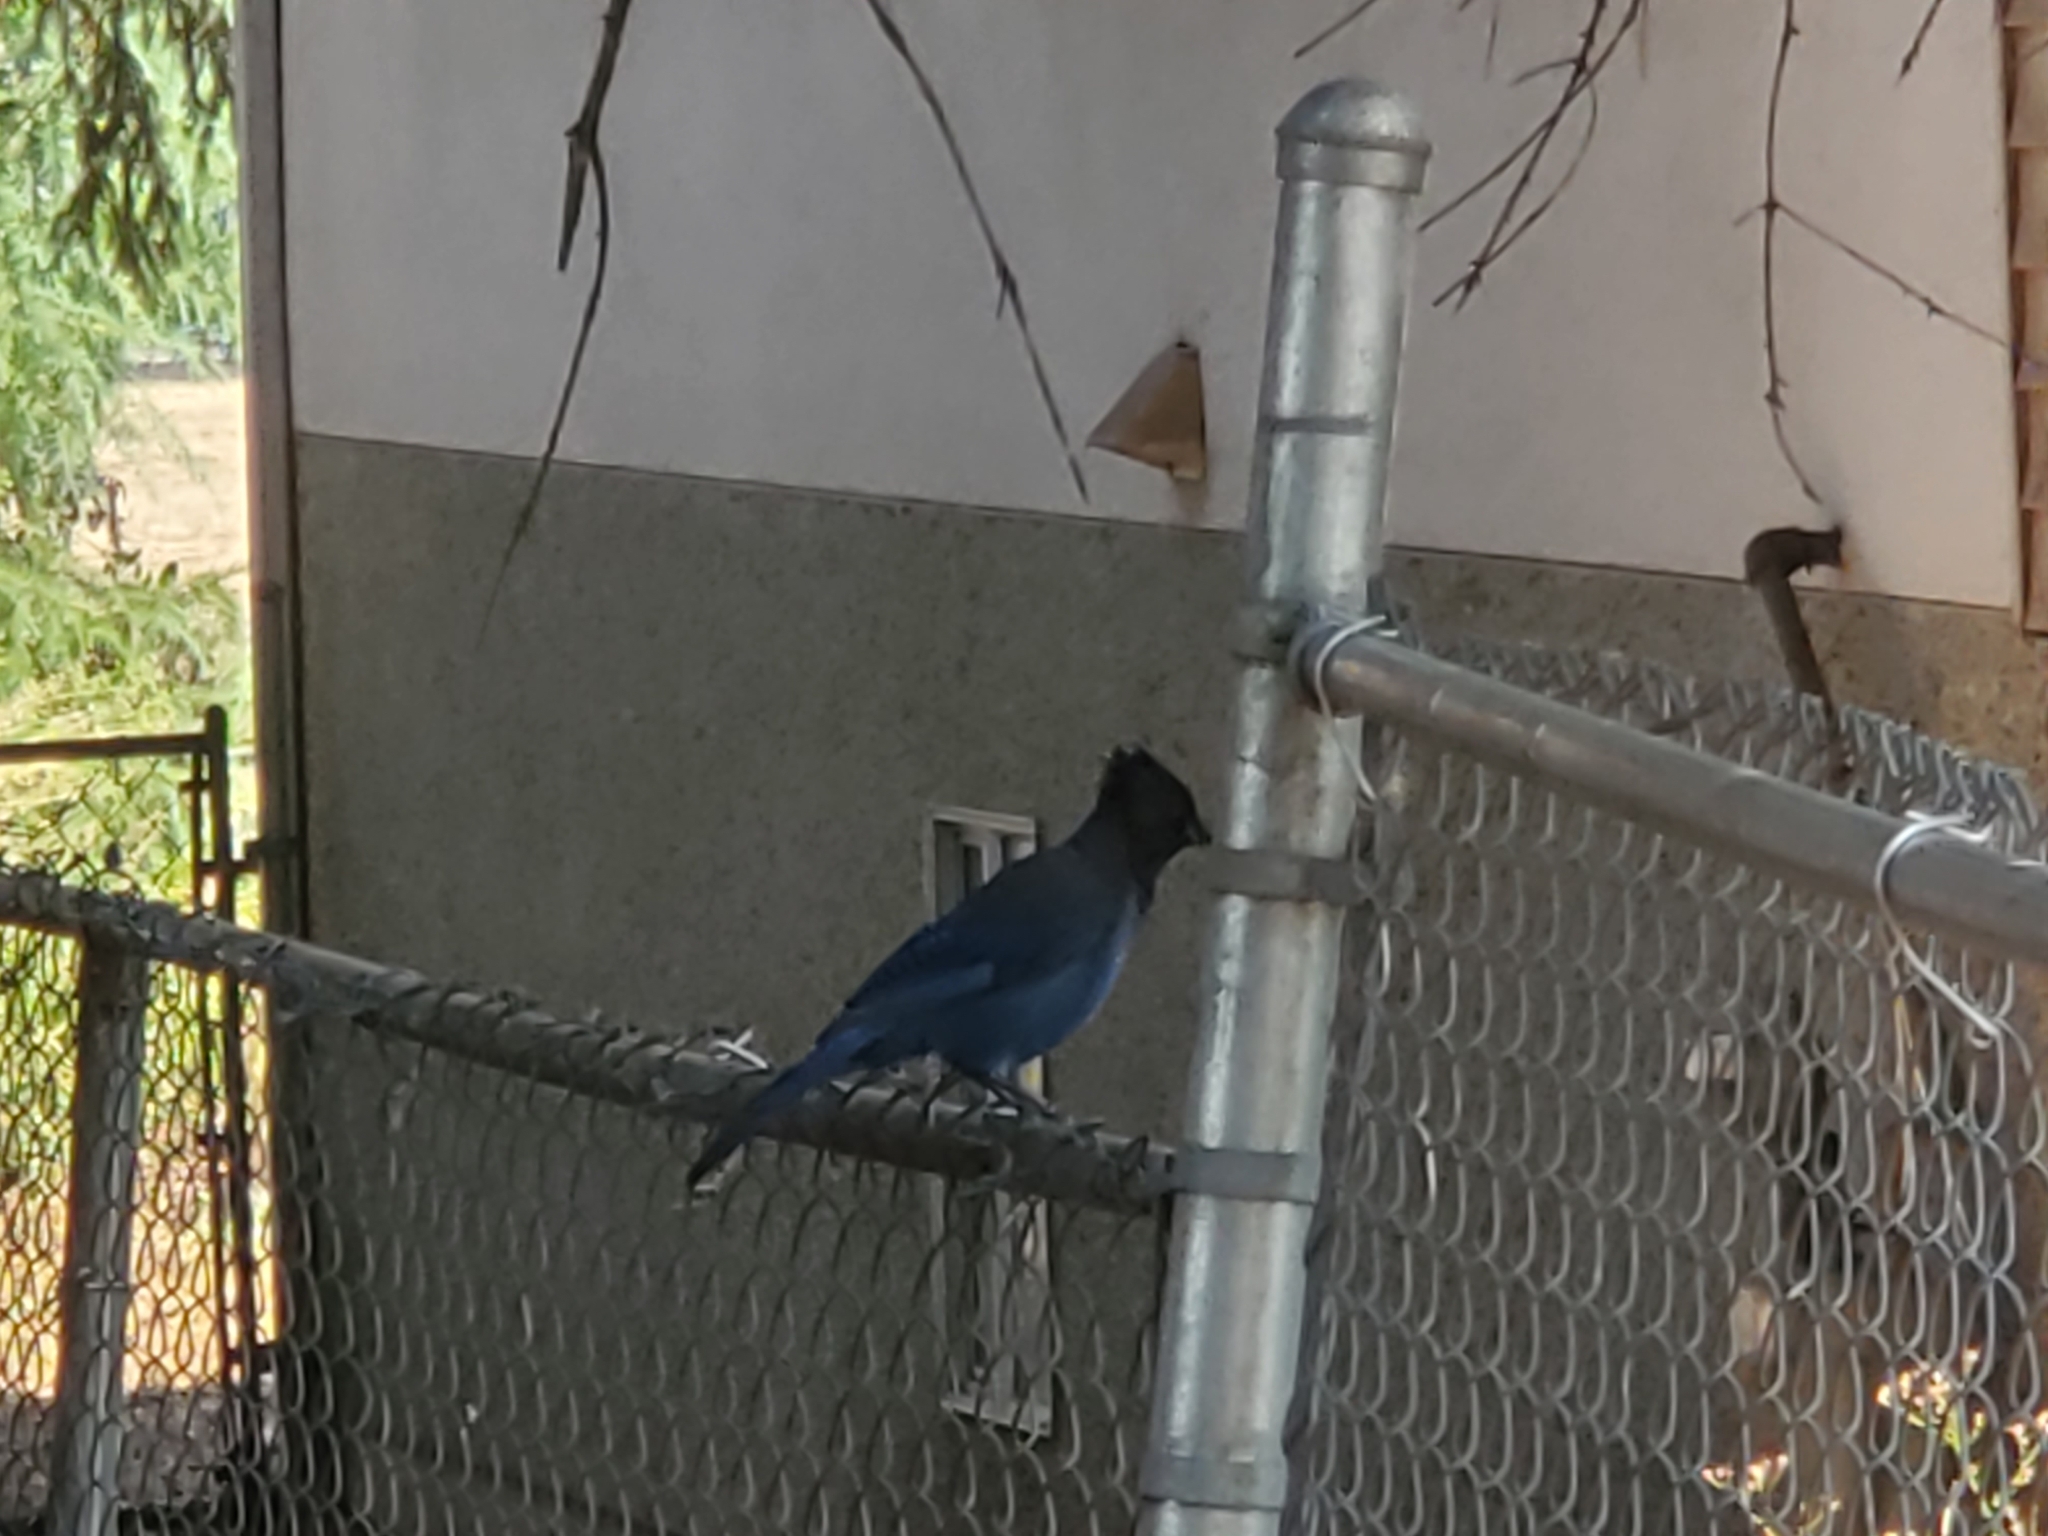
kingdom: Animalia
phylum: Chordata
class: Aves
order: Passeriformes
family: Corvidae
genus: Cyanocitta
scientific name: Cyanocitta stelleri
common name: Steller's jay
